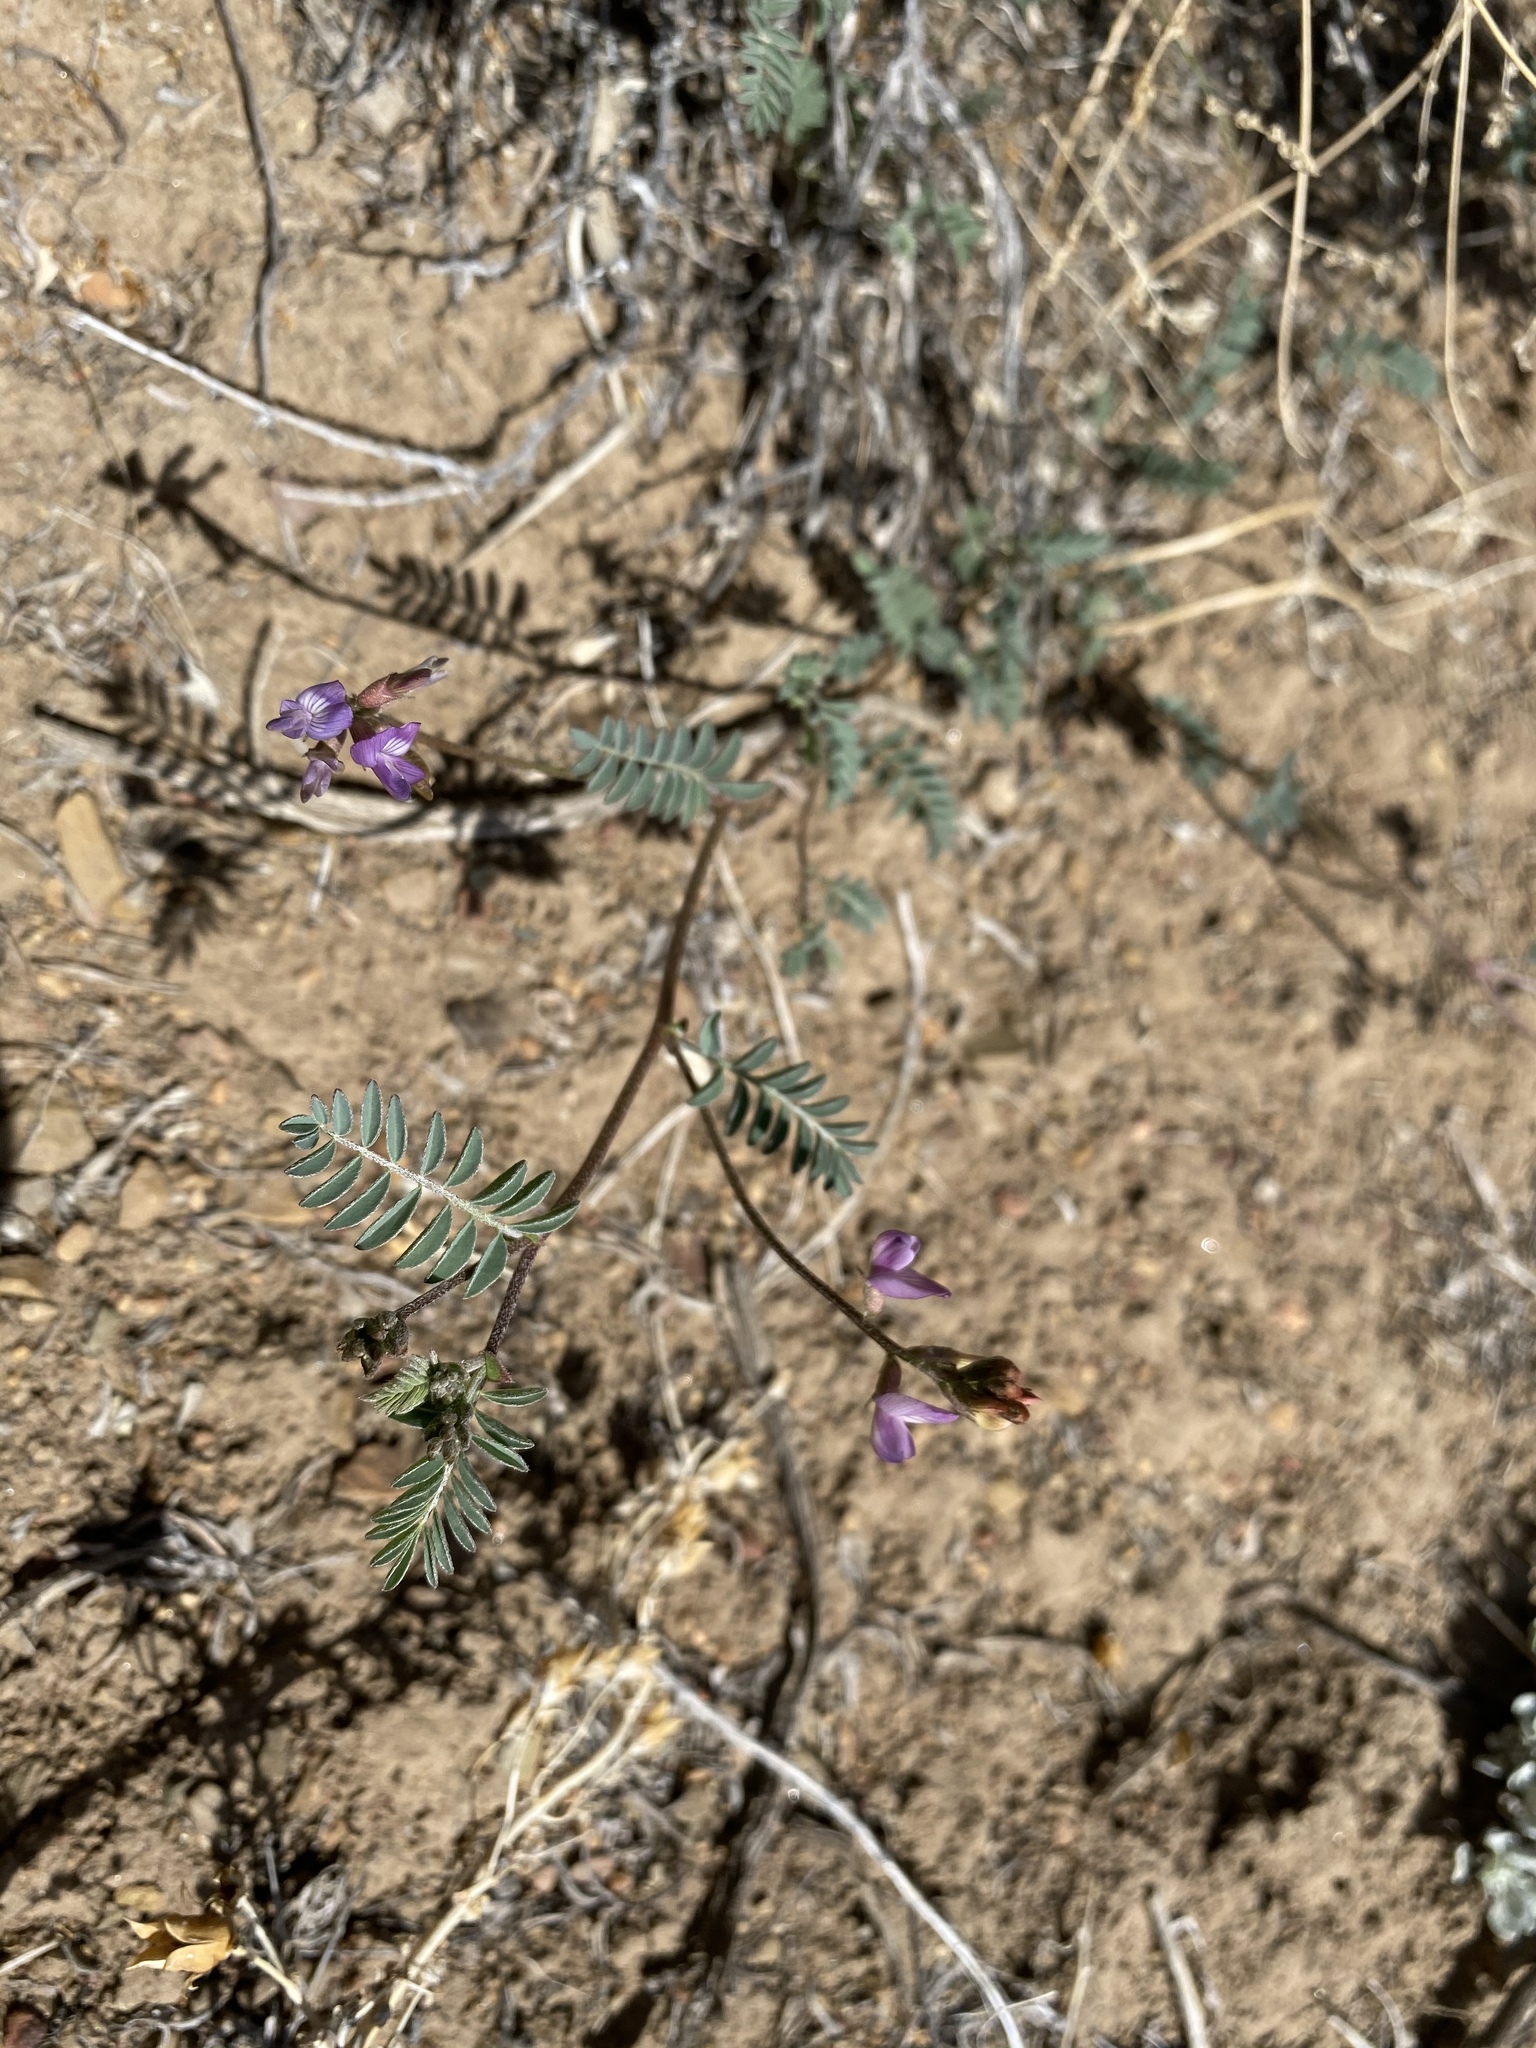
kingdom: Plantae
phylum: Tracheophyta
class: Magnoliopsida
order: Fabales
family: Fabaceae
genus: Astragalus
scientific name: Astragalus inyoensis
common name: Inyo locoweed
